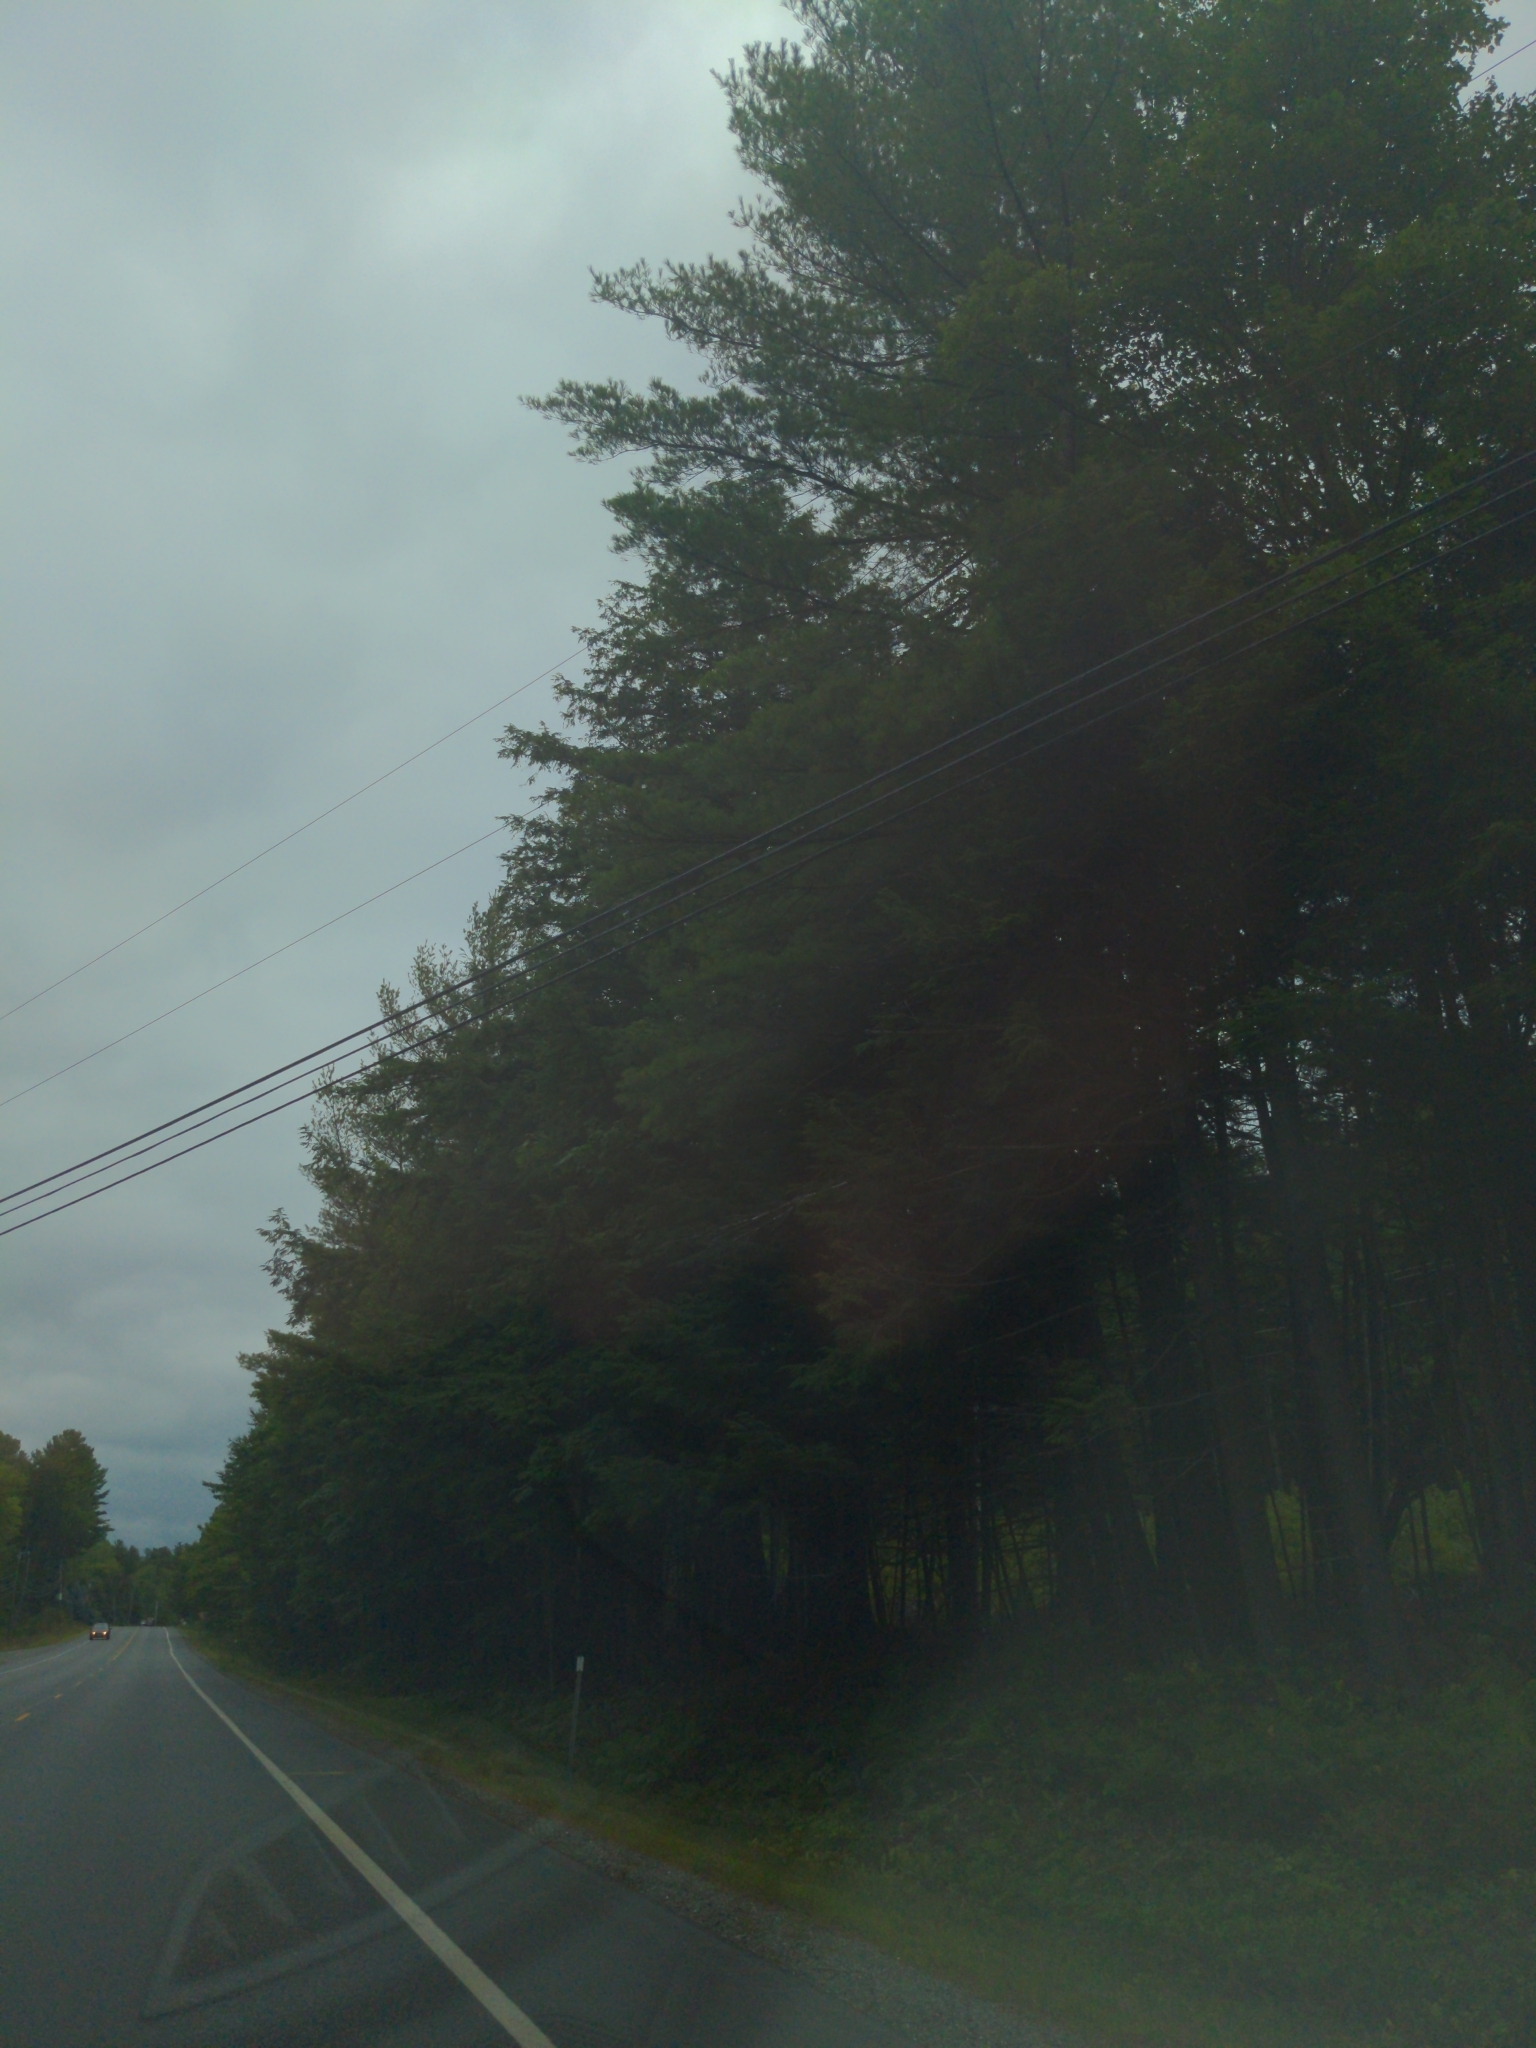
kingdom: Plantae
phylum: Tracheophyta
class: Pinopsida
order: Pinales
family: Pinaceae
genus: Pinus
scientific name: Pinus strobus
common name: Weymouth pine
